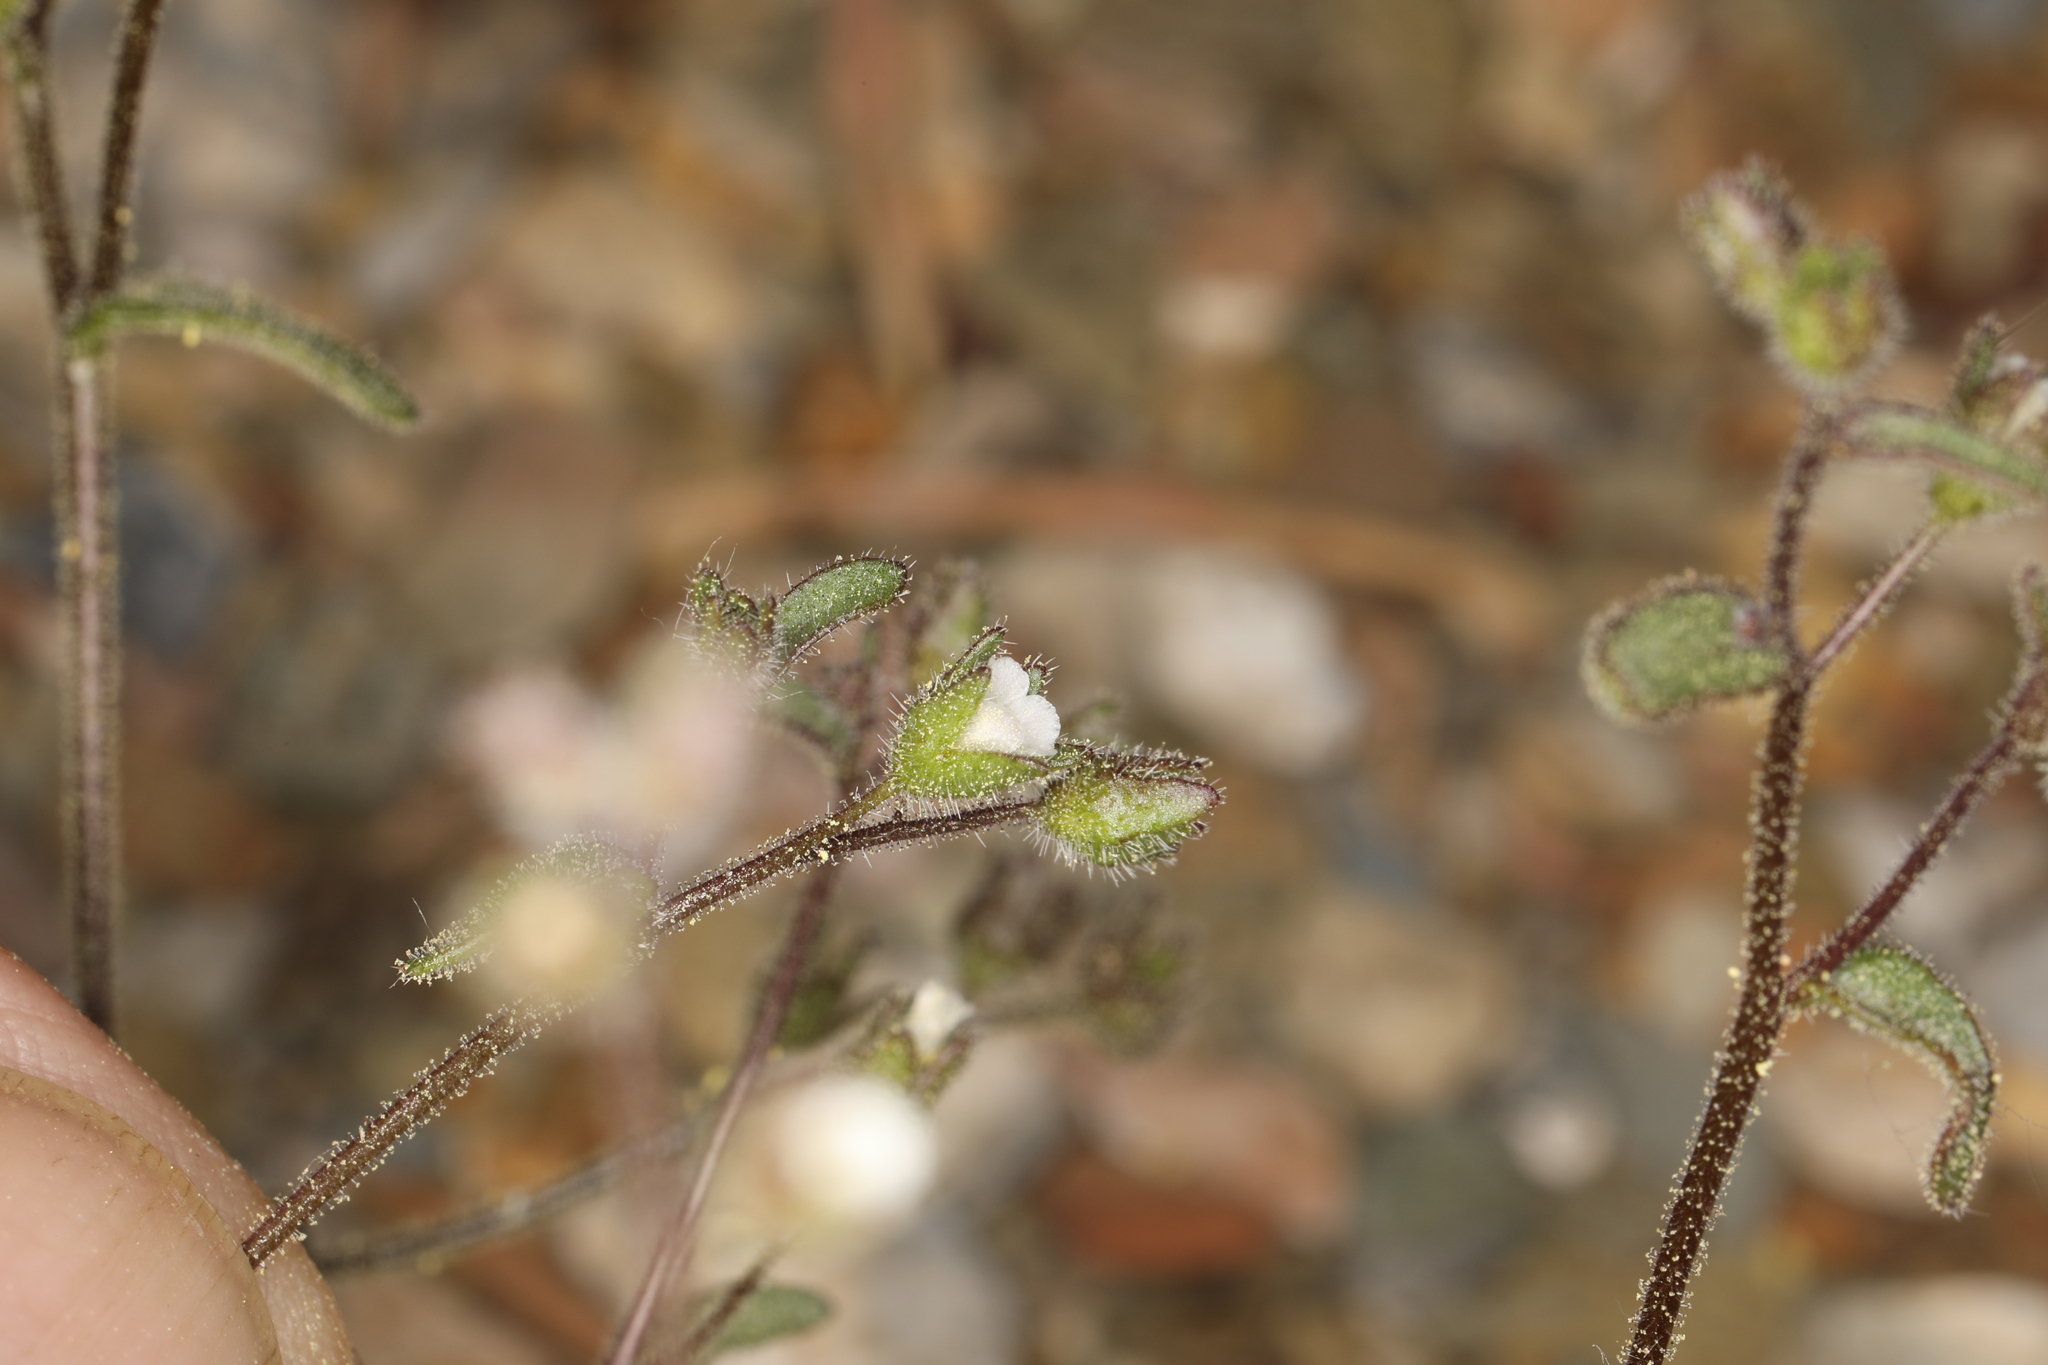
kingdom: Plantae
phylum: Tracheophyta
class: Magnoliopsida
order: Boraginales
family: Hydrophyllaceae
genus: Eucrypta
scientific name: Eucrypta micrantha
